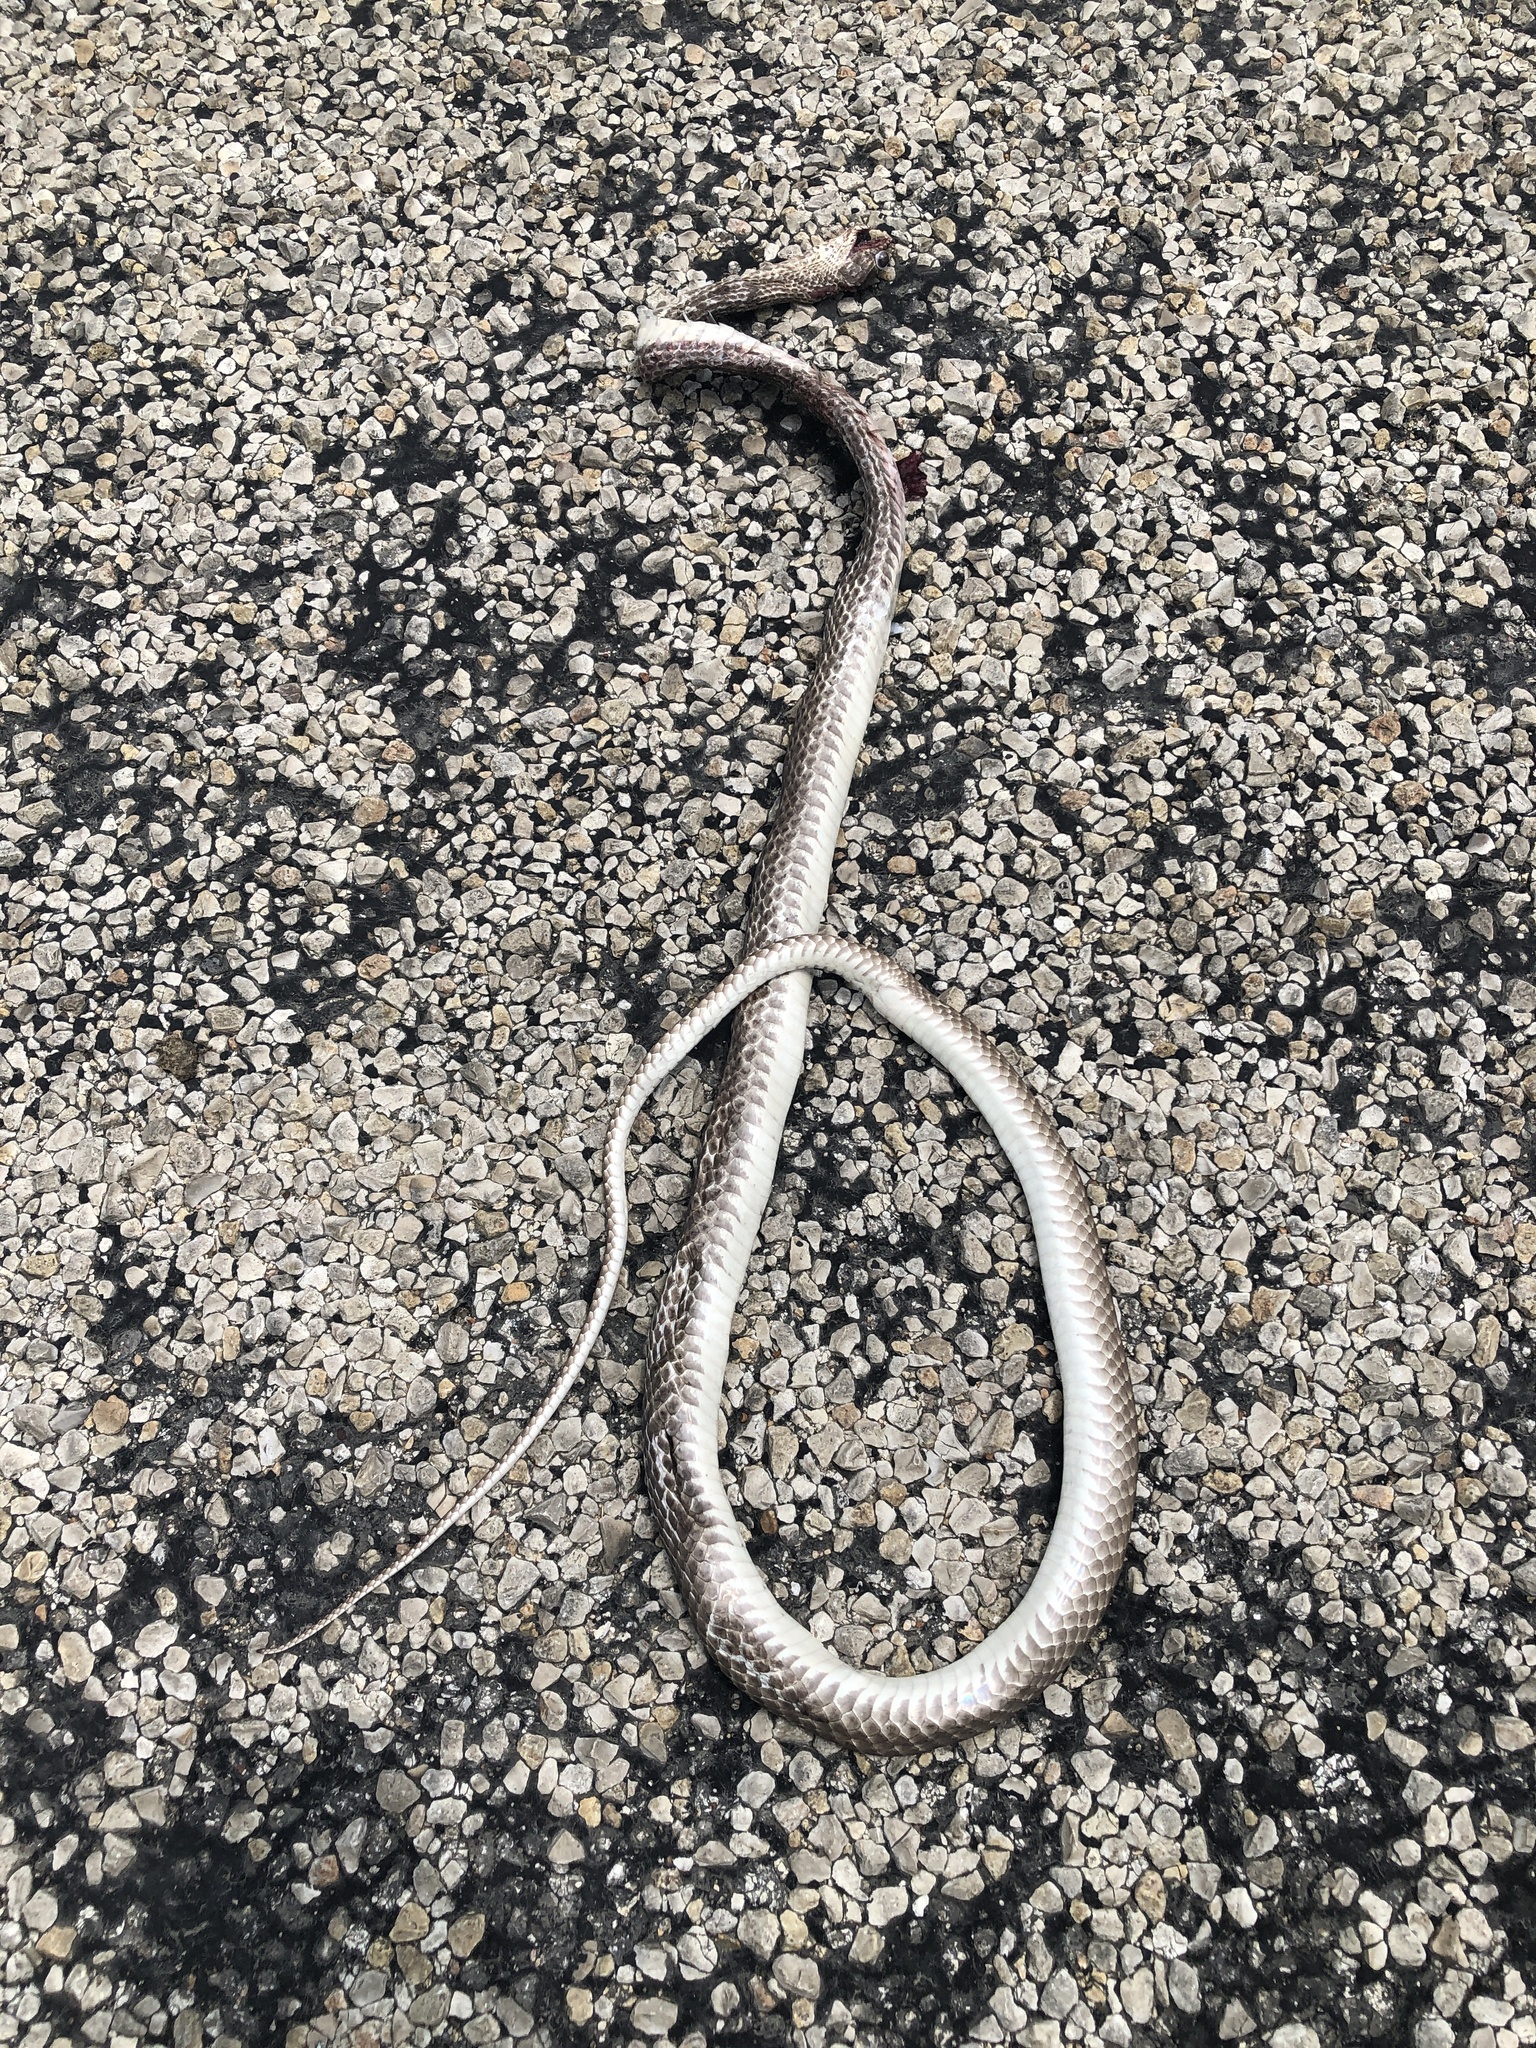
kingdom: Animalia
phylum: Chordata
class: Squamata
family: Colubridae
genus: Masticophis
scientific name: Masticophis flagellum
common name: Coachwhip
